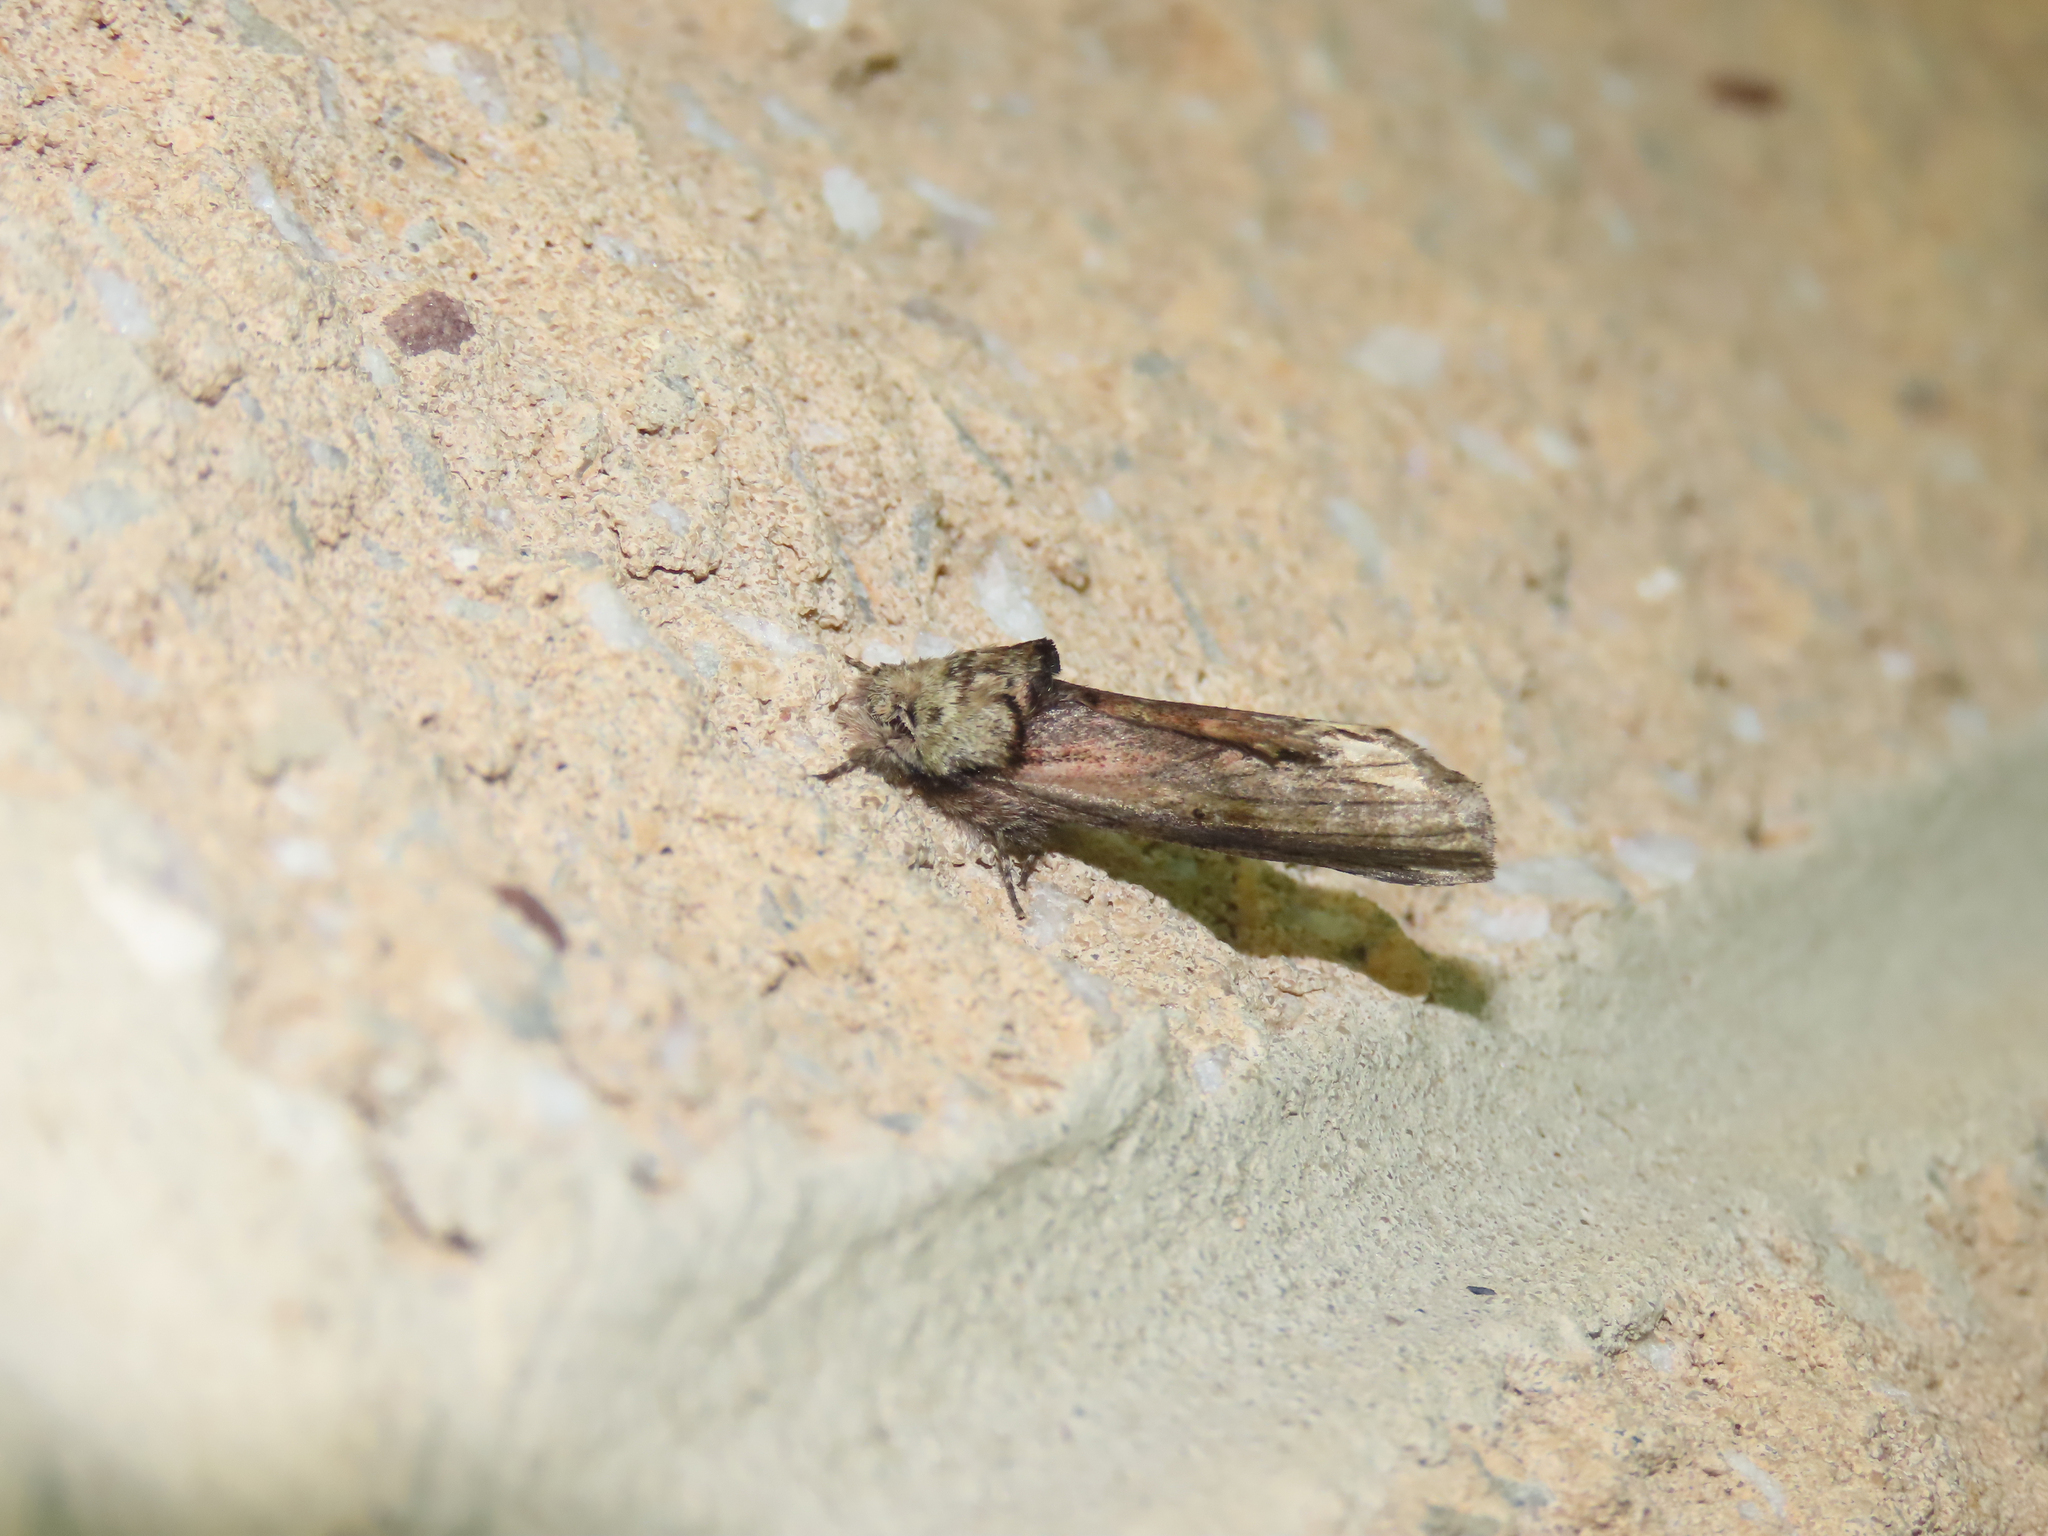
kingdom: Animalia
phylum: Arthropoda
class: Insecta
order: Lepidoptera
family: Notodontidae
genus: Schizura
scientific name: Schizura
